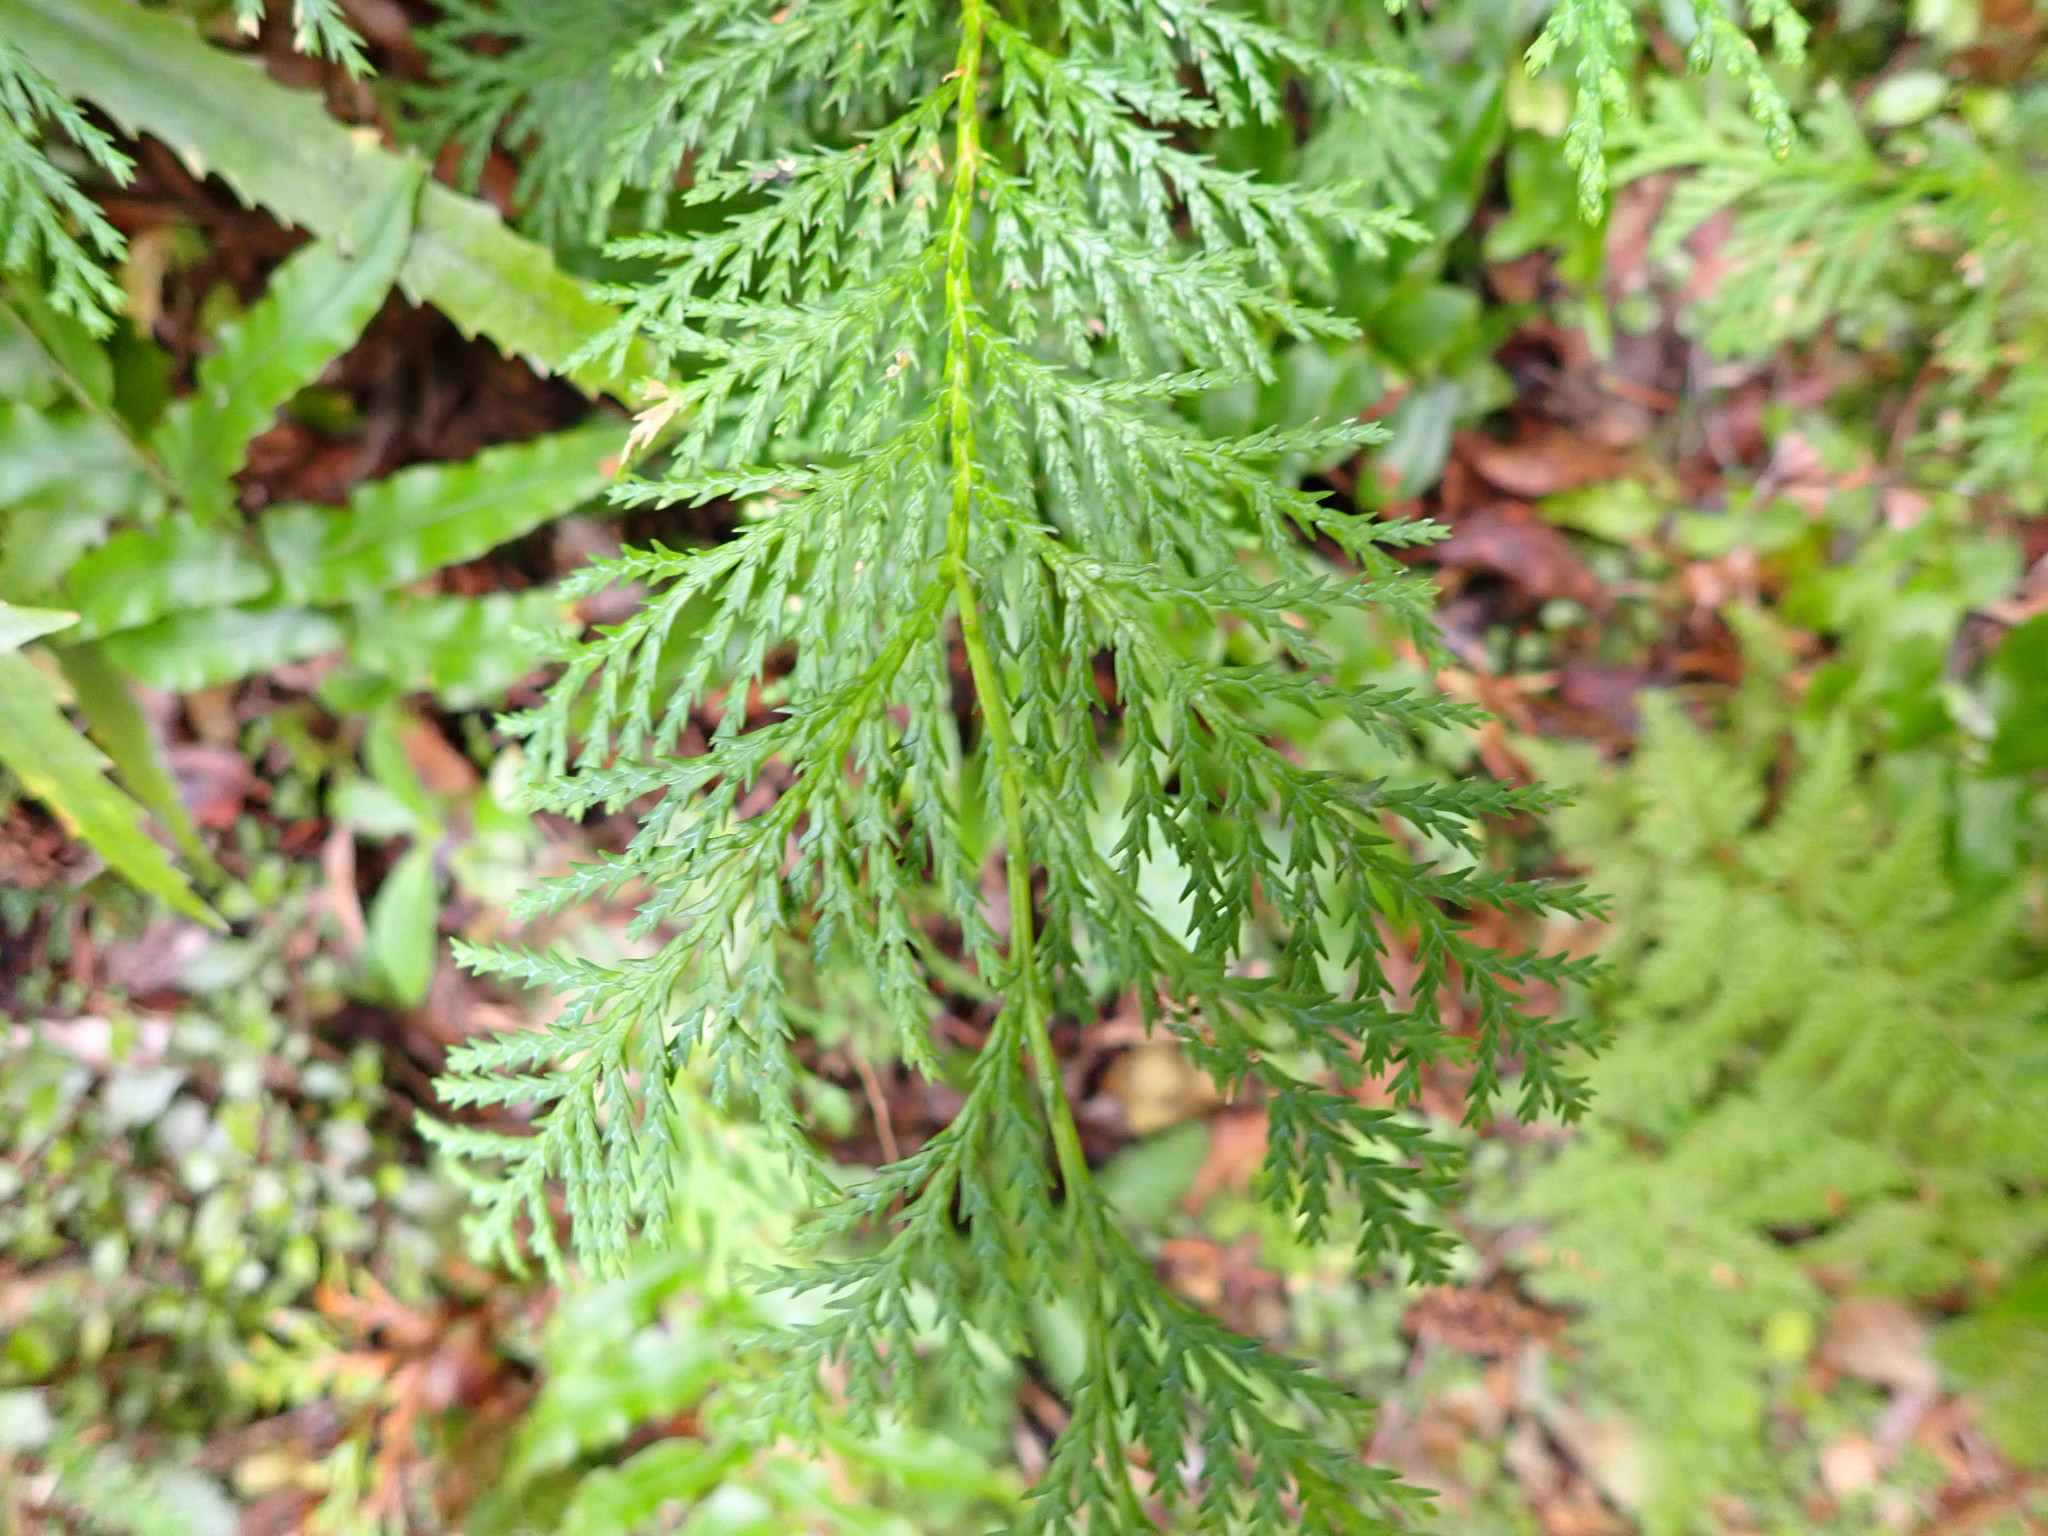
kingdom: Plantae
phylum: Tracheophyta
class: Pinopsida
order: Pinales
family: Cupressaceae
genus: Chamaecyparis
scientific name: Chamaecyparis lawsoniana
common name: Lawson's cypress
